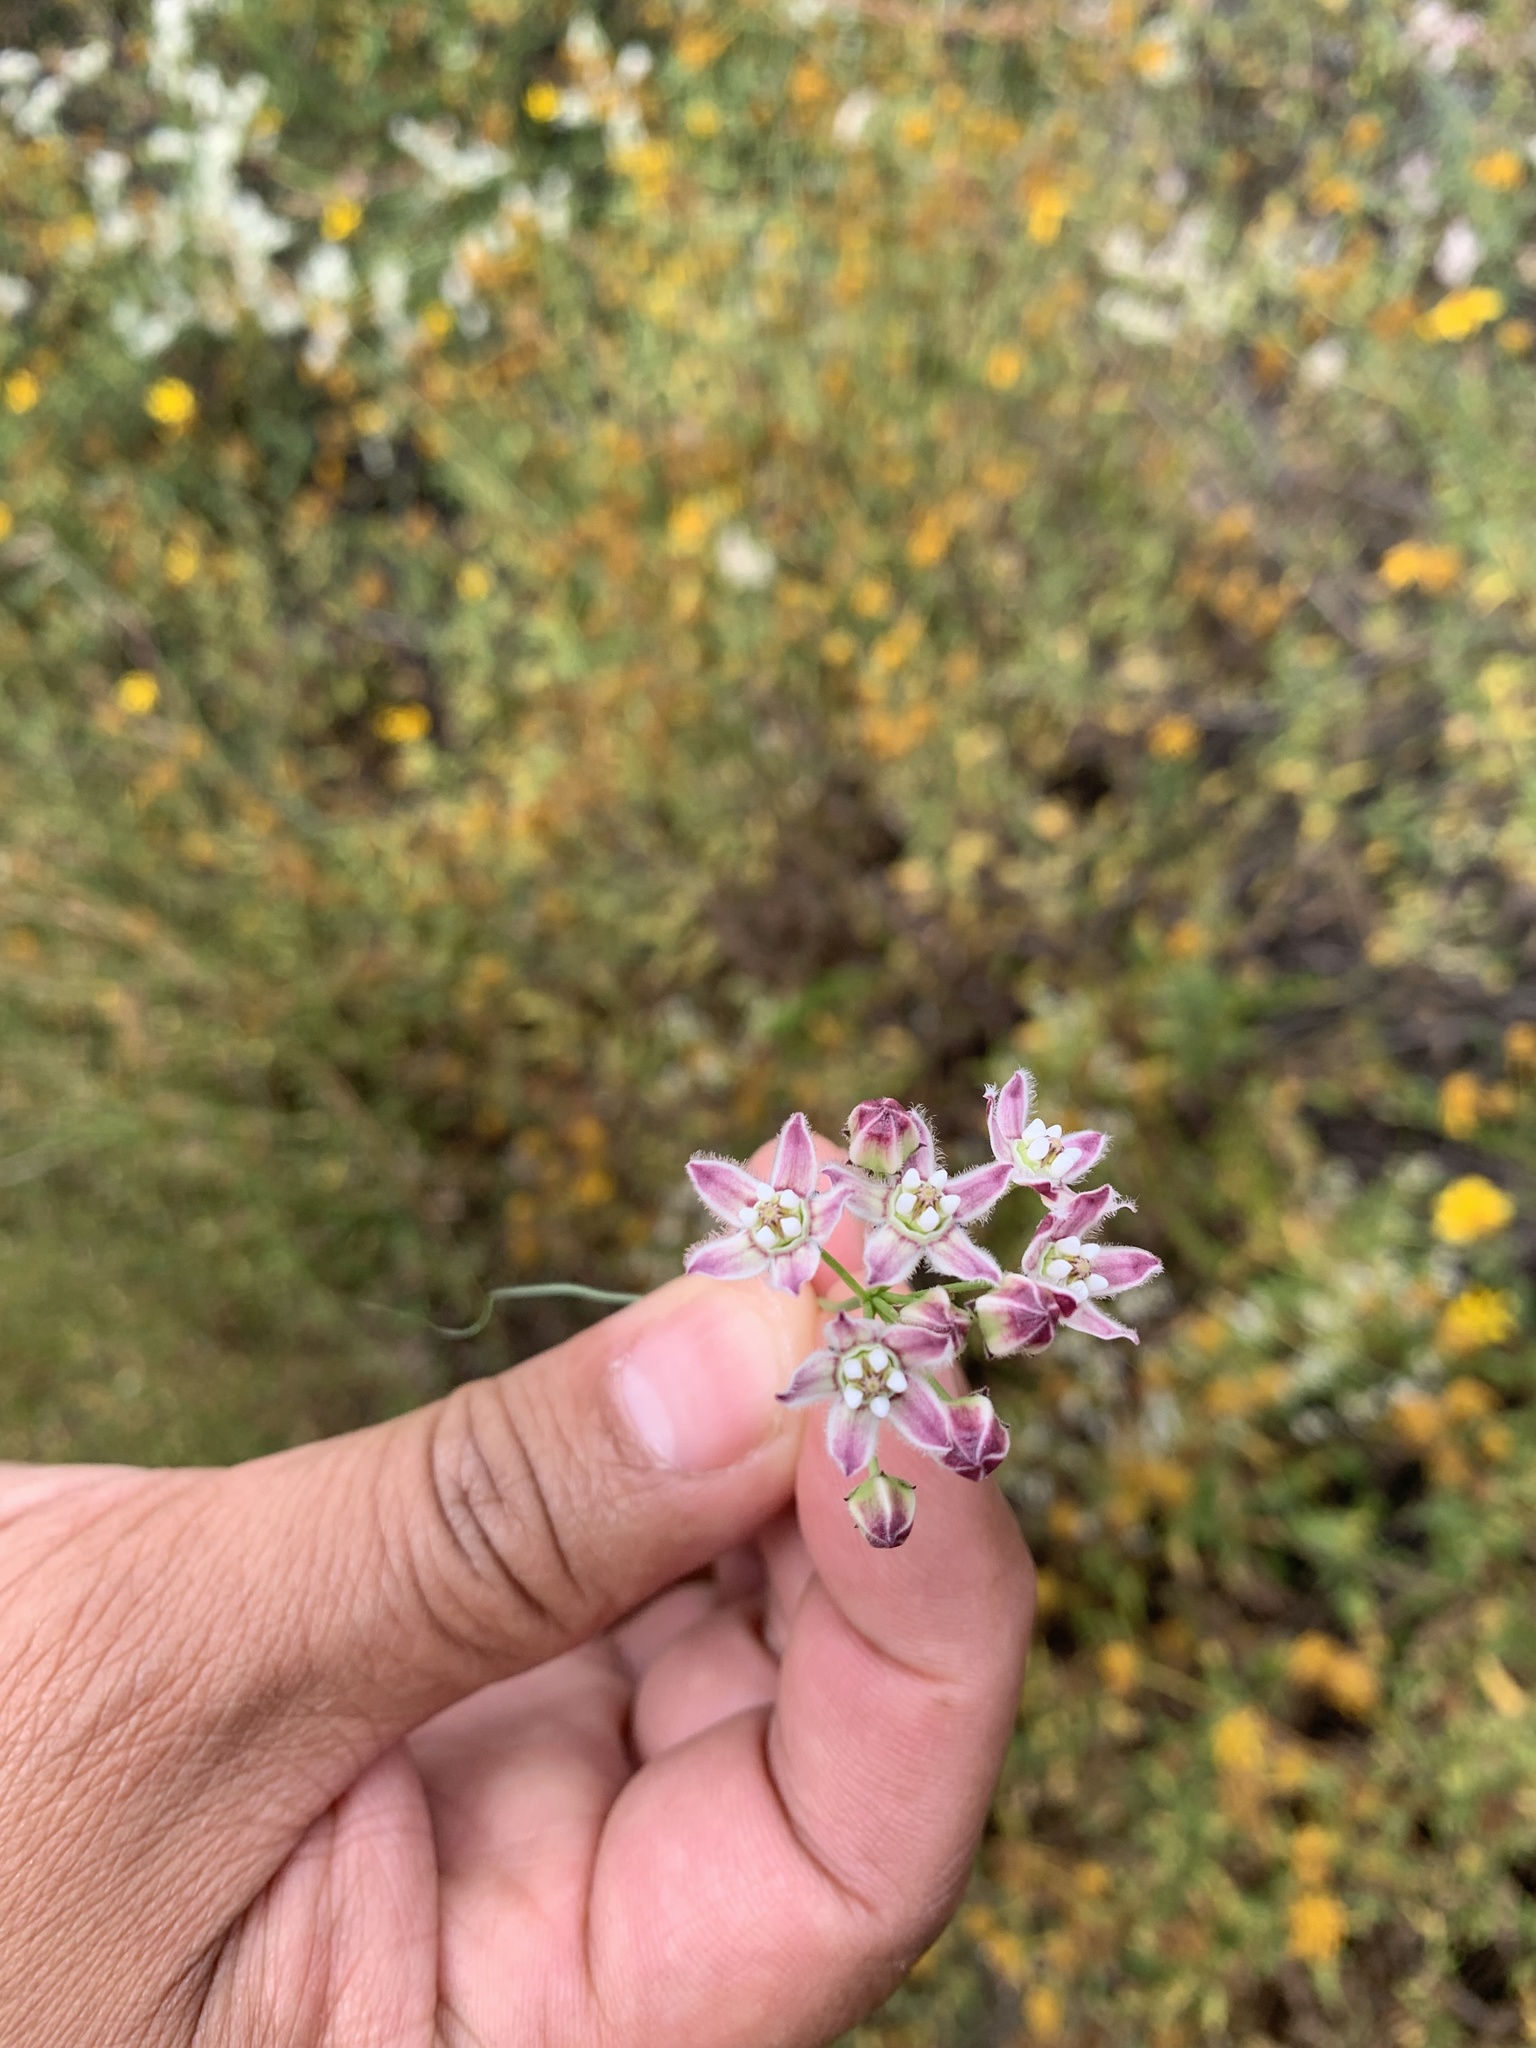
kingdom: Plantae
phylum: Tracheophyta
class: Magnoliopsida
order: Gentianales
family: Apocynaceae
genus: Funastrum
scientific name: Funastrum heterophyllum
